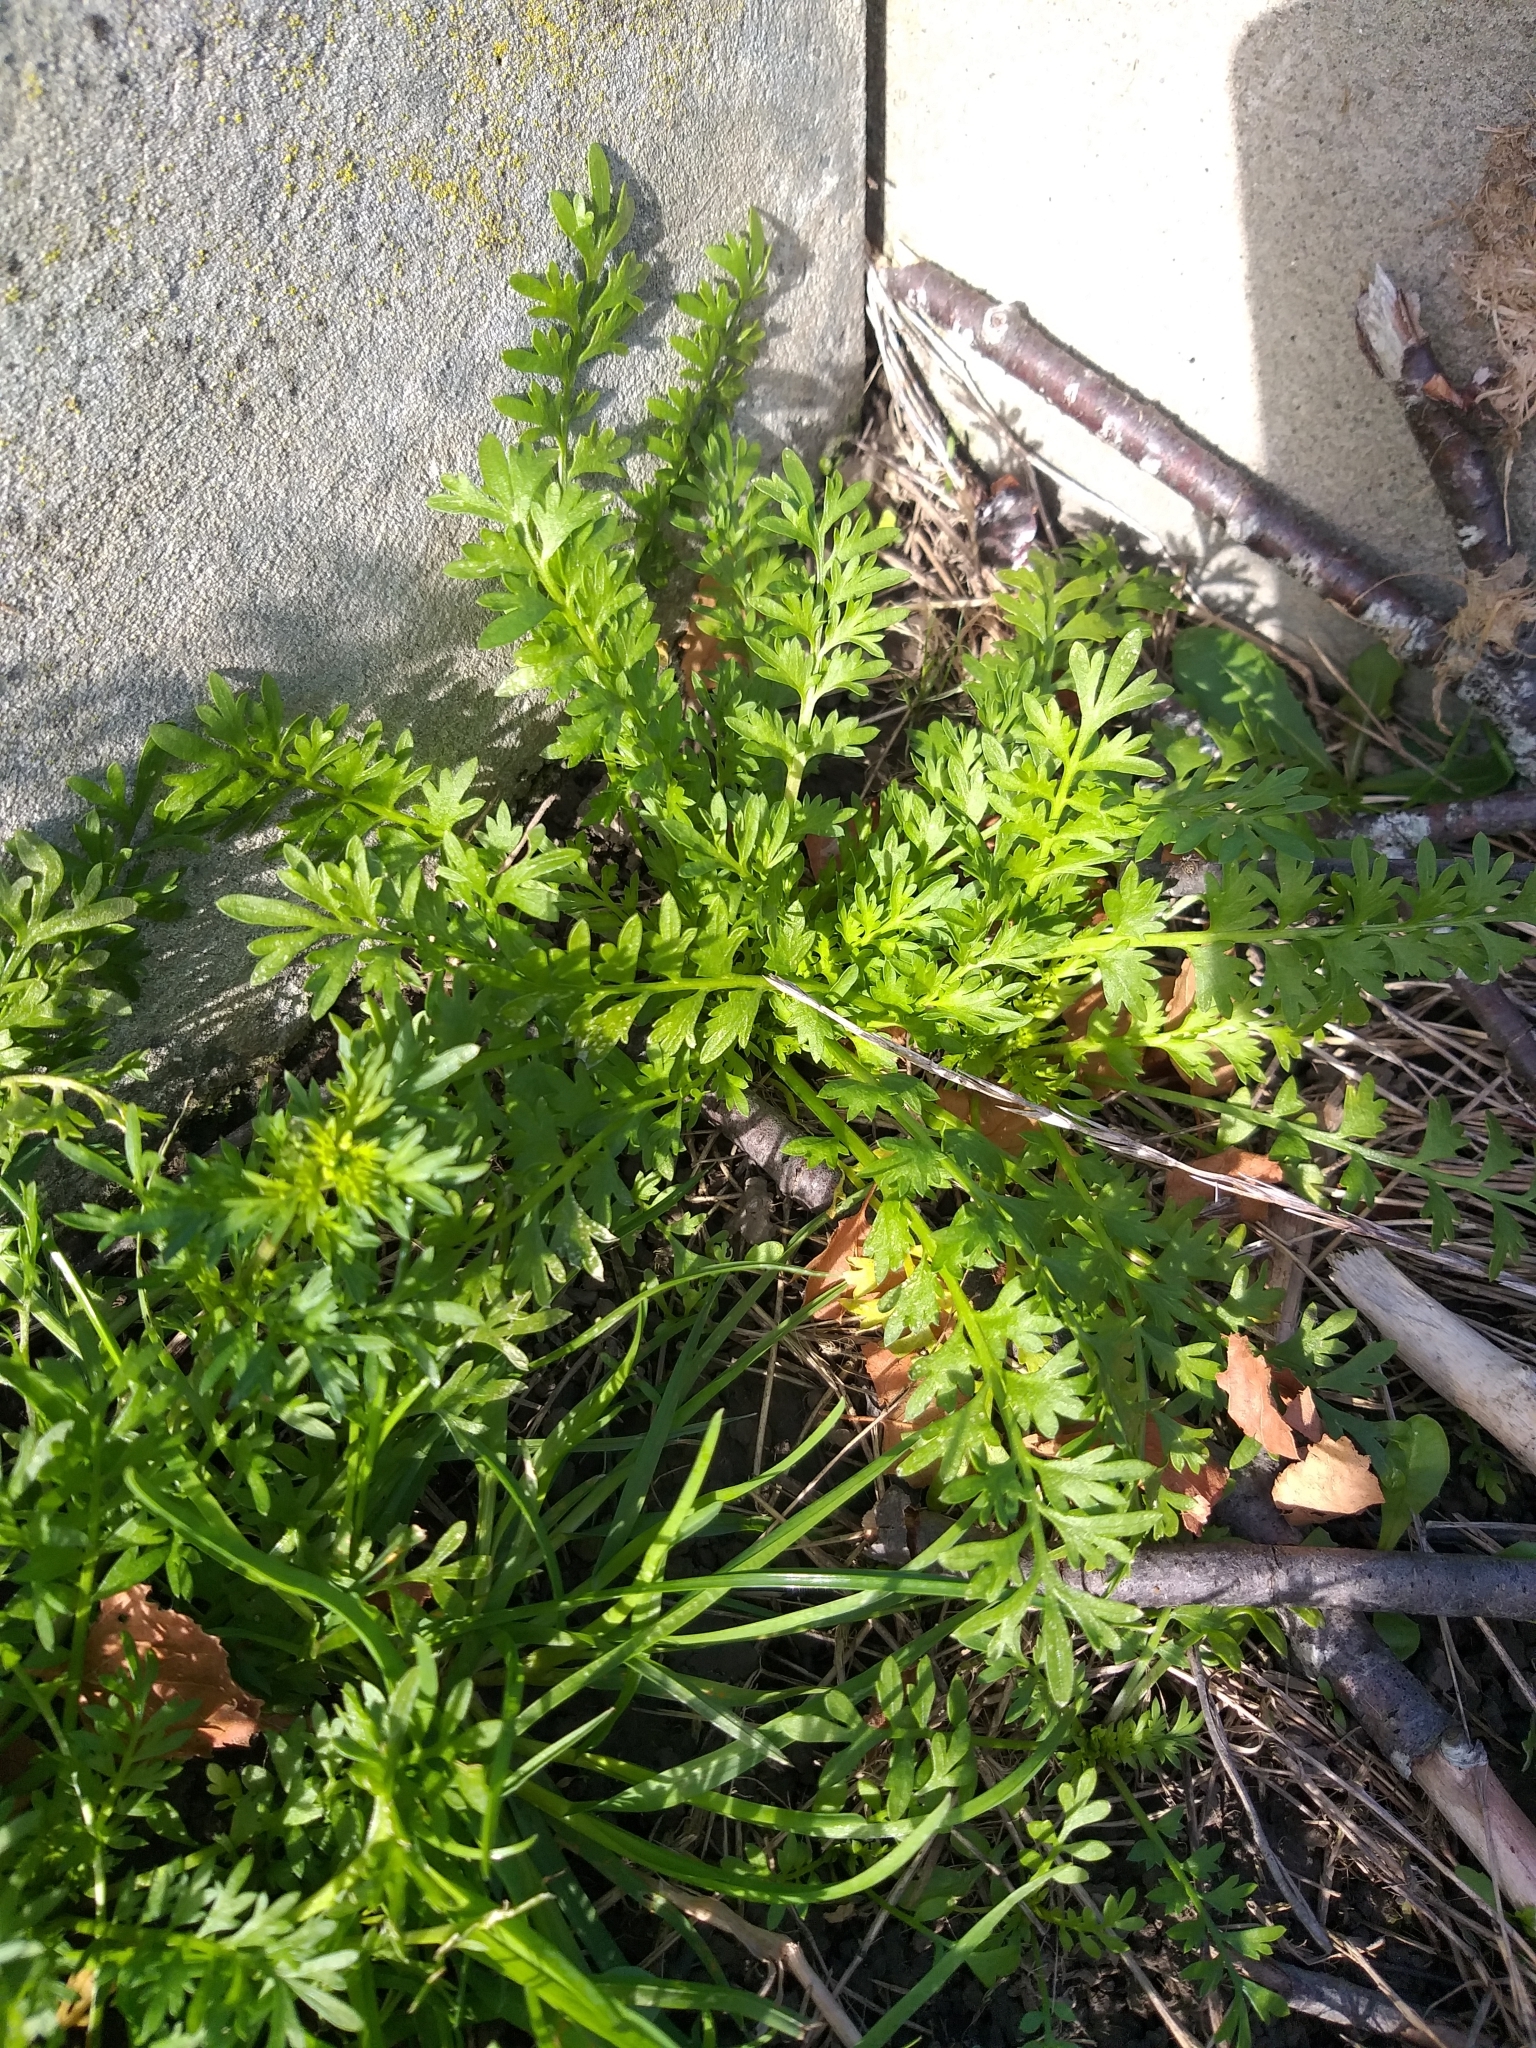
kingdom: Plantae
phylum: Tracheophyta
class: Magnoliopsida
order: Brassicales
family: Brassicaceae
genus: Lepidium
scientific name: Lepidium didymum
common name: Lesser swinecress
